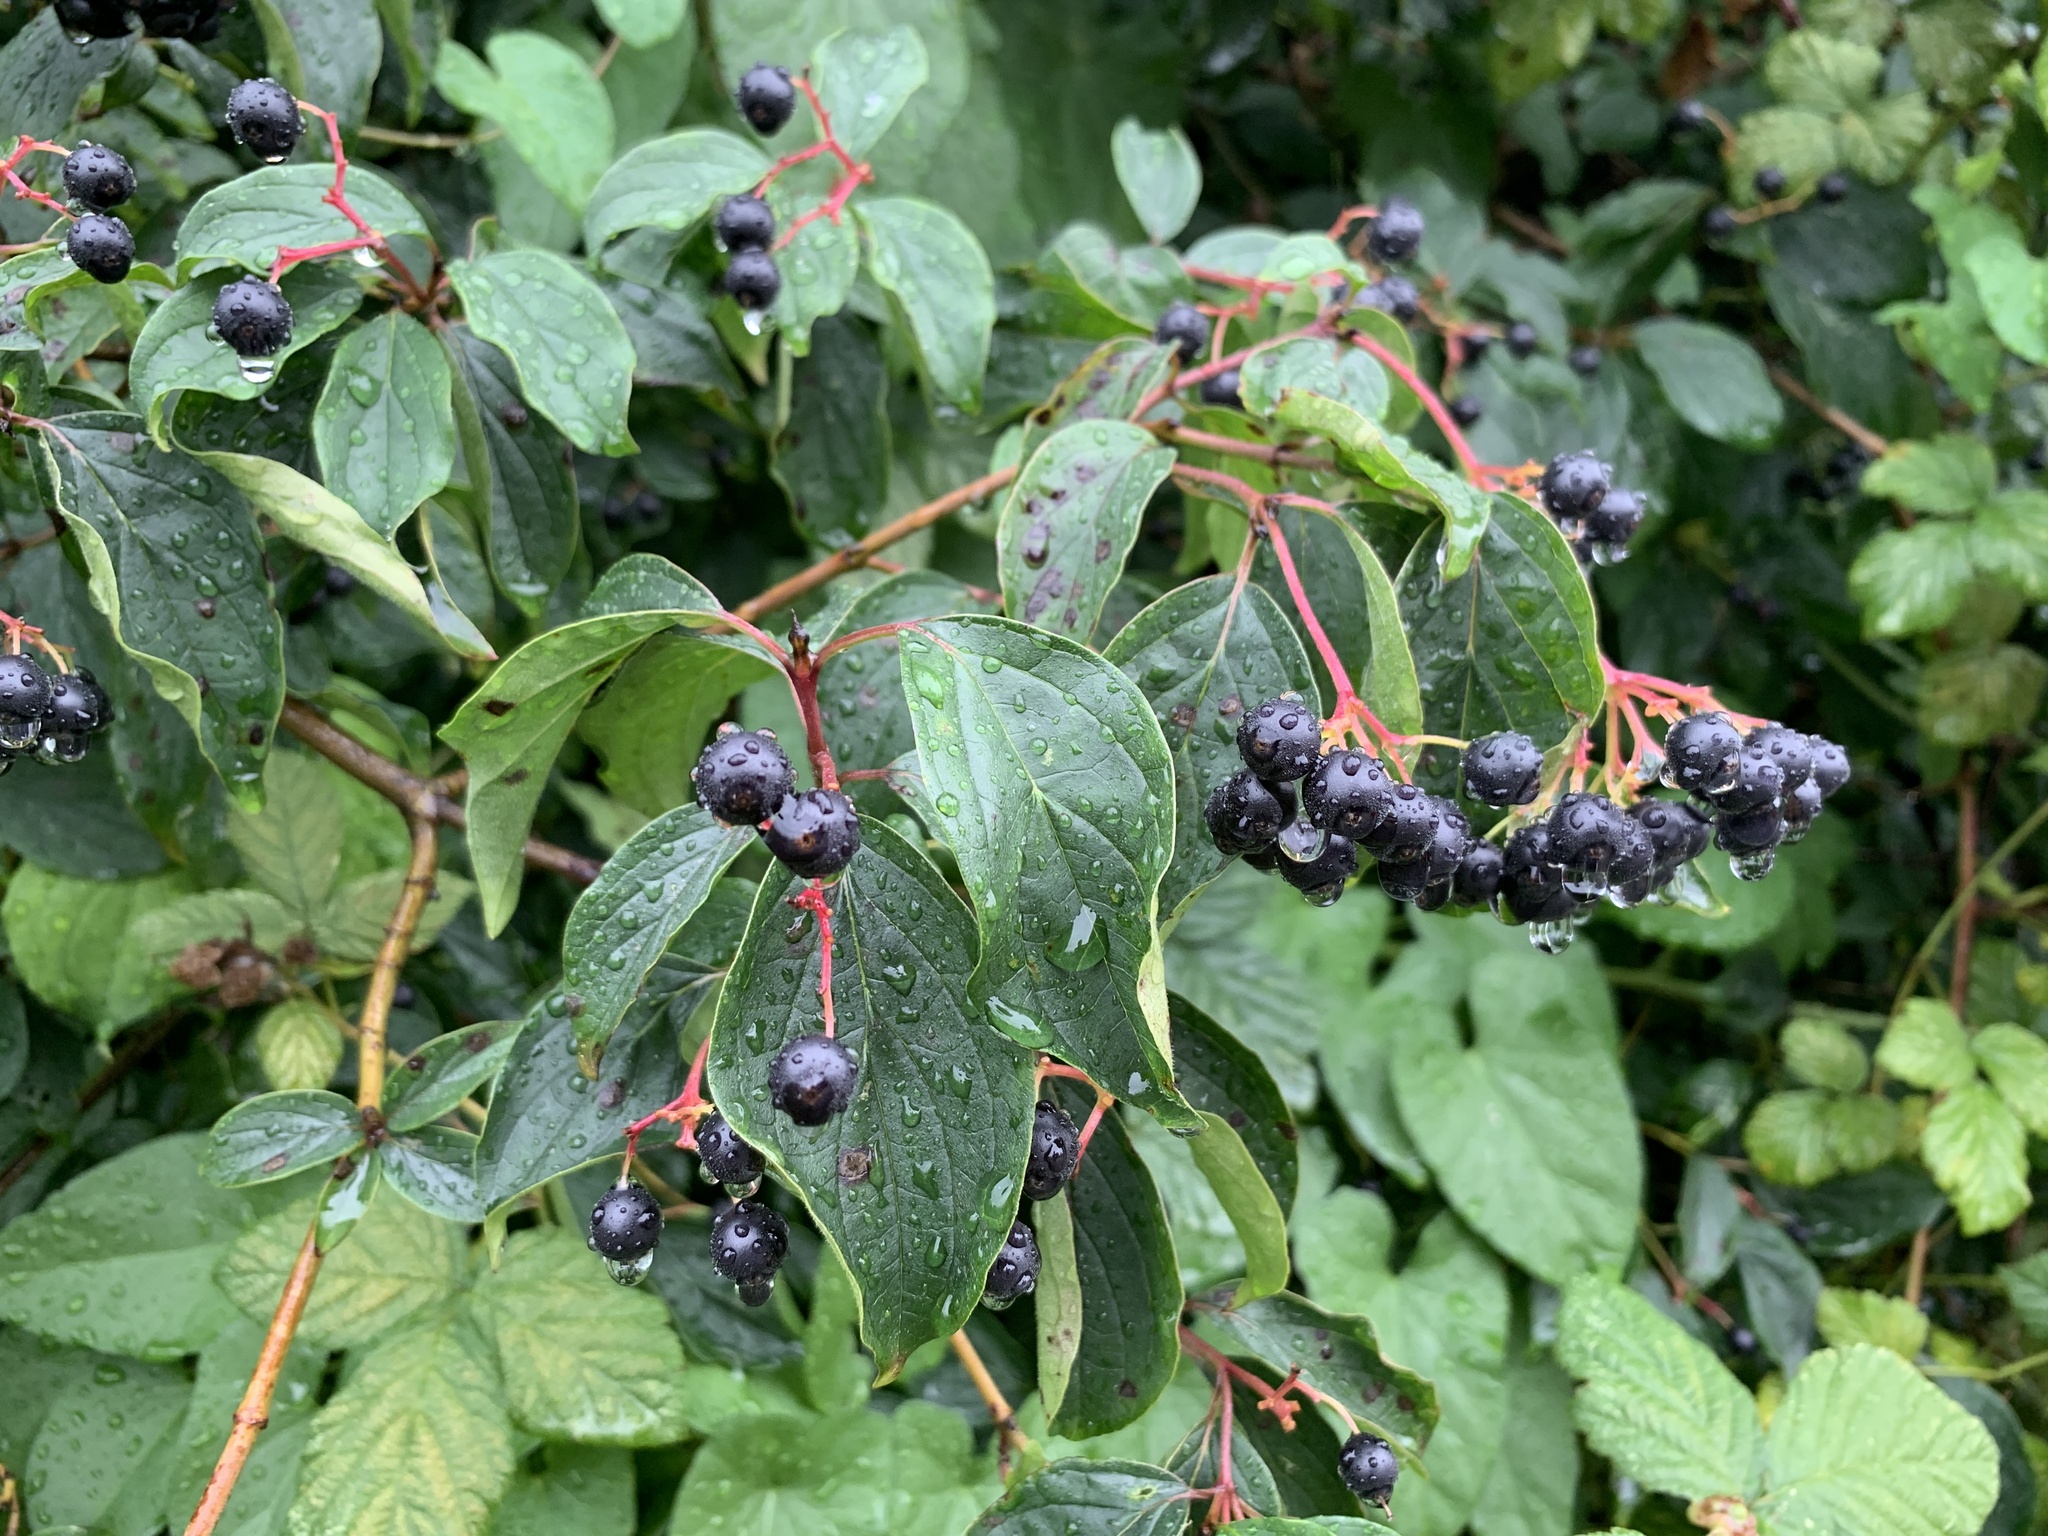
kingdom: Plantae
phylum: Tracheophyta
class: Magnoliopsida
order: Cornales
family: Cornaceae
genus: Cornus
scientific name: Cornus sanguinea
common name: Dogwood
